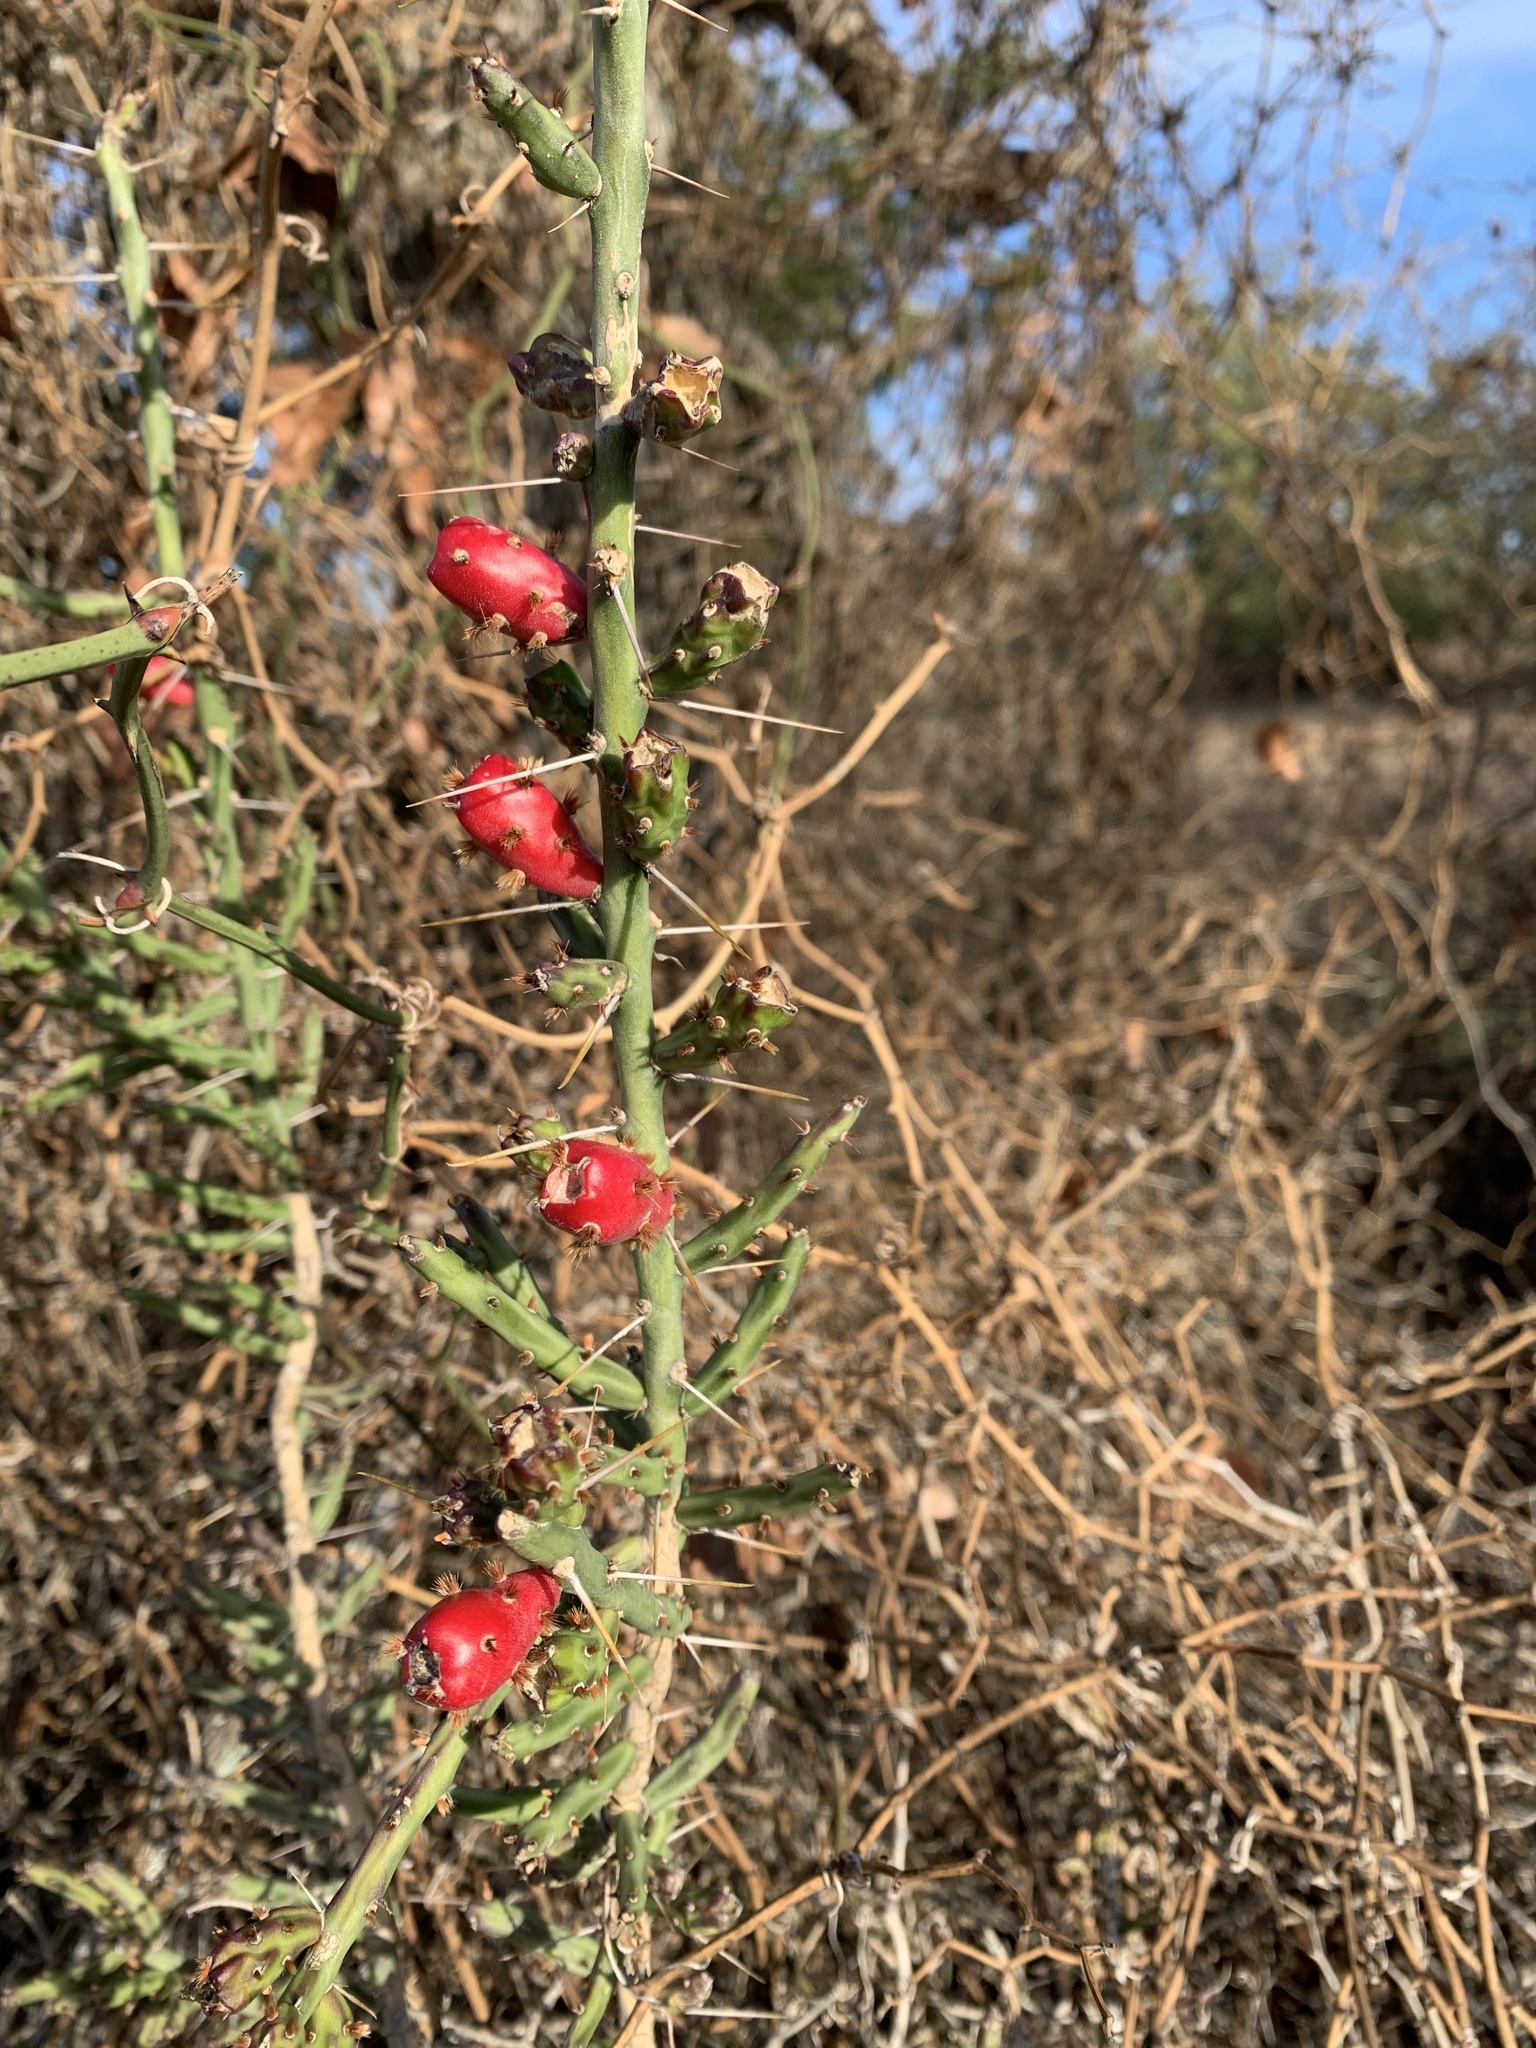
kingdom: Plantae
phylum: Tracheophyta
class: Magnoliopsida
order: Caryophyllales
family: Cactaceae
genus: Cylindropuntia
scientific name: Cylindropuntia leptocaulis
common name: Christmas cactus
